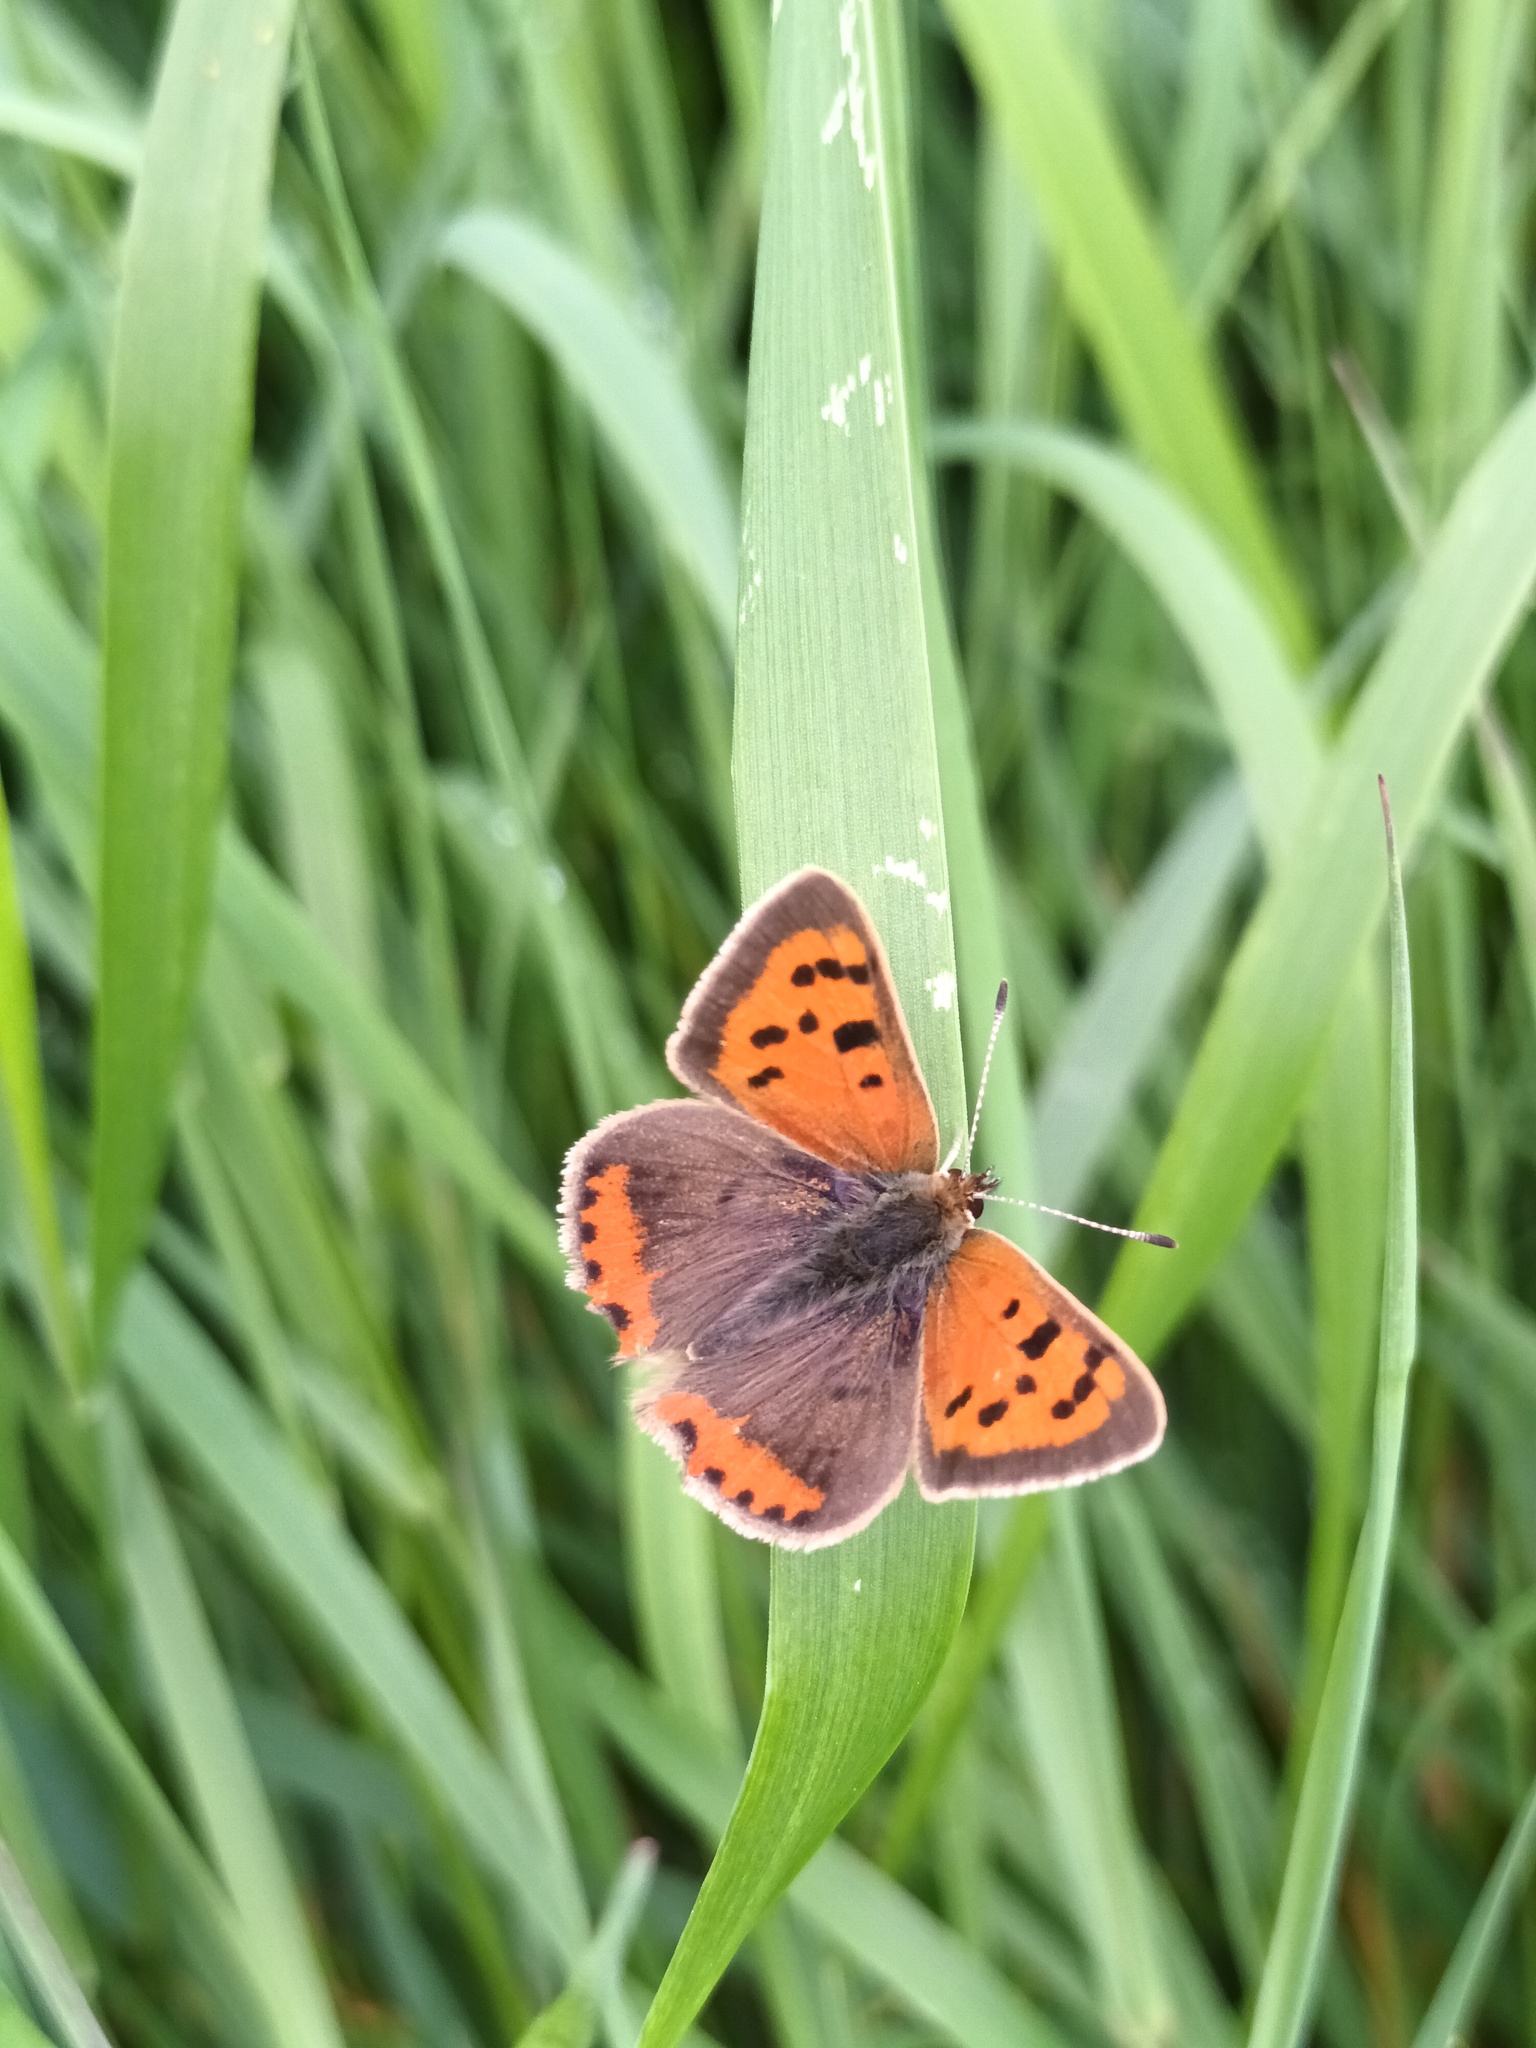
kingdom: Animalia
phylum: Arthropoda
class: Insecta
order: Lepidoptera
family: Lycaenidae
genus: Lycaena
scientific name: Lycaena phlaeas
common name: Small copper
